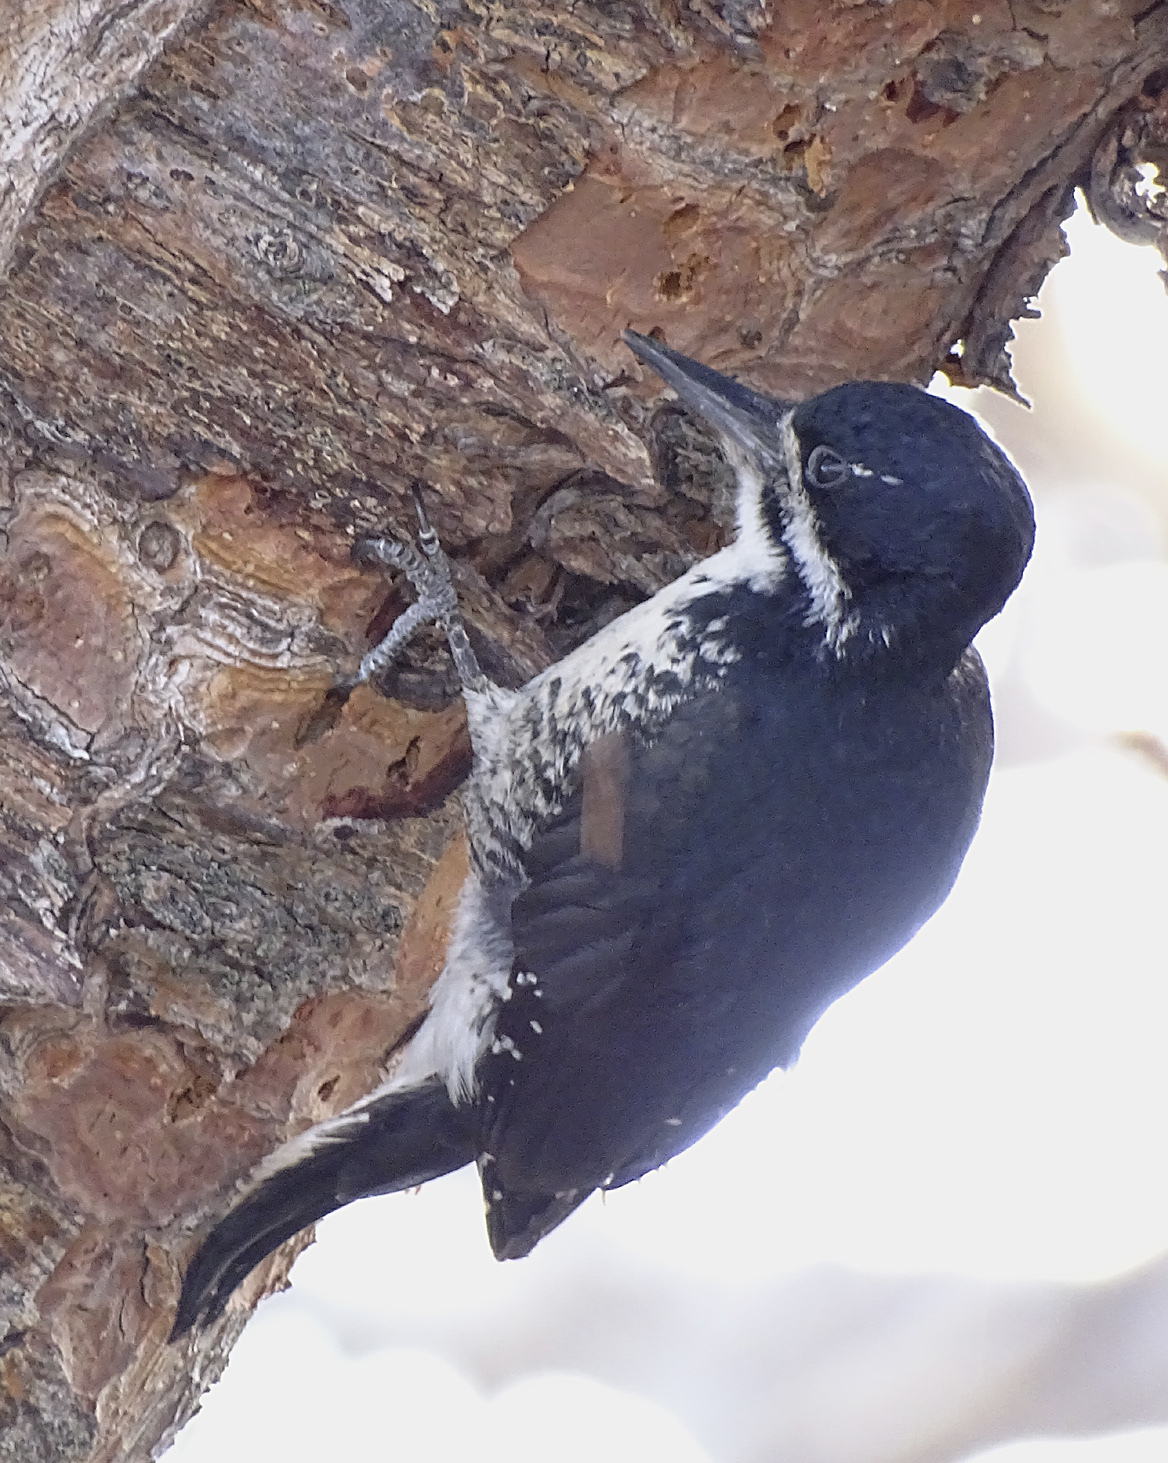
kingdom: Animalia
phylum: Chordata
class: Aves
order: Piciformes
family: Picidae
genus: Picoides
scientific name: Picoides arcticus
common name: Black-backed woodpecker
